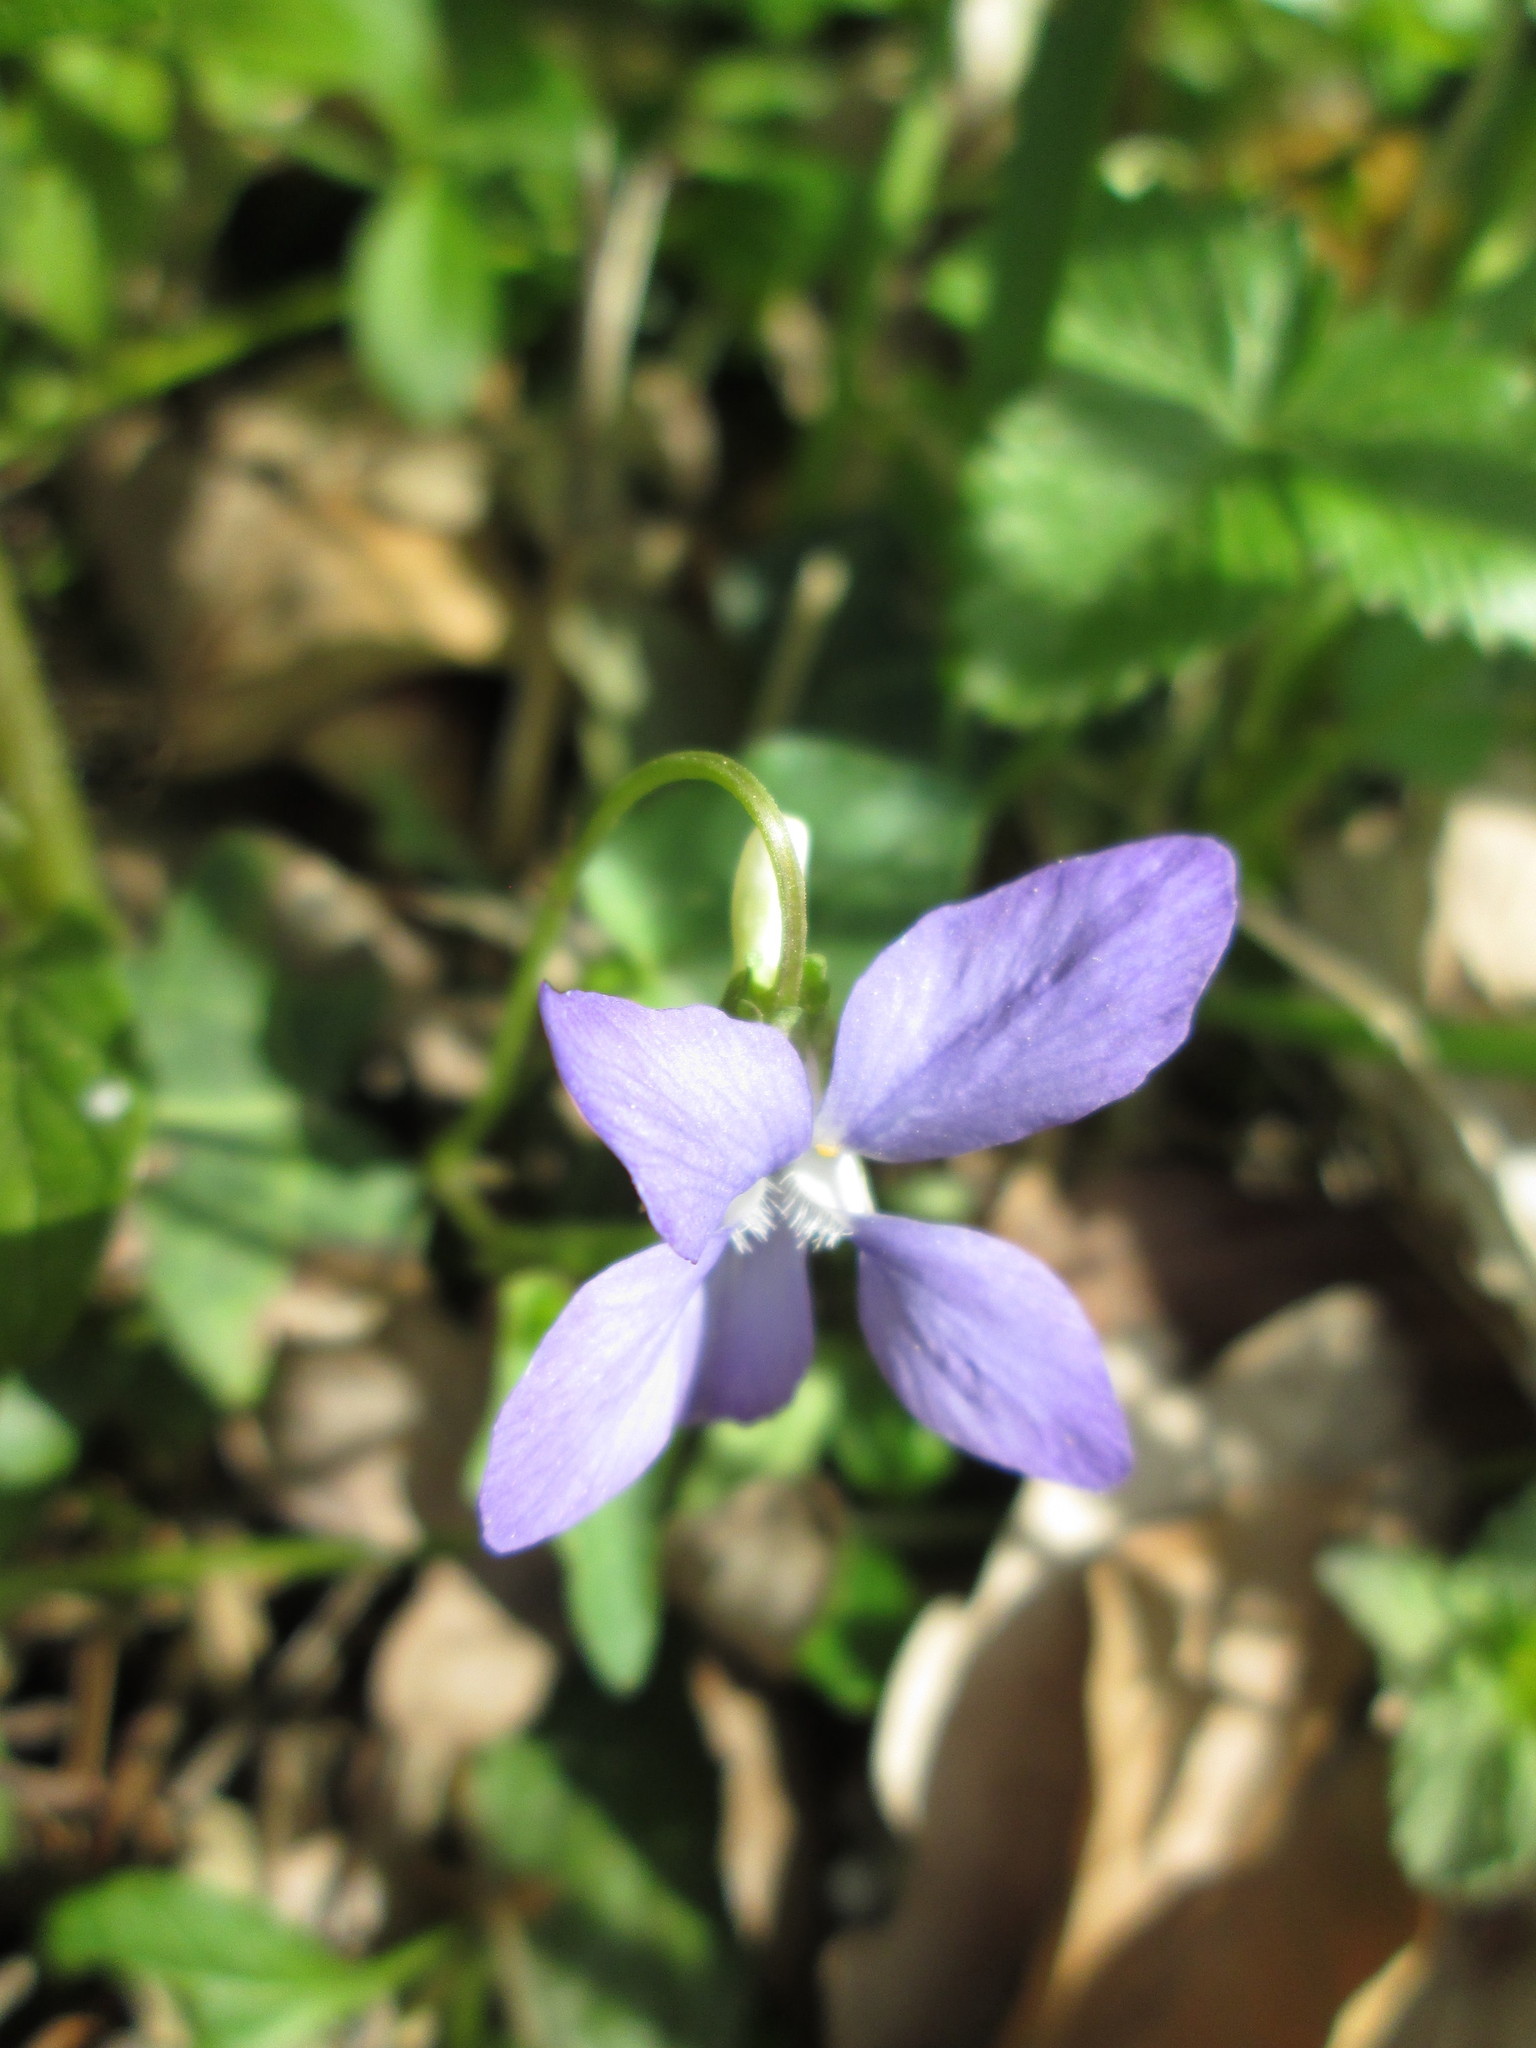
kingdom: Plantae
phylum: Tracheophyta
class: Magnoliopsida
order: Malpighiales
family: Violaceae
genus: Viola
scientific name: Viola riviniana
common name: Common dog-violet
